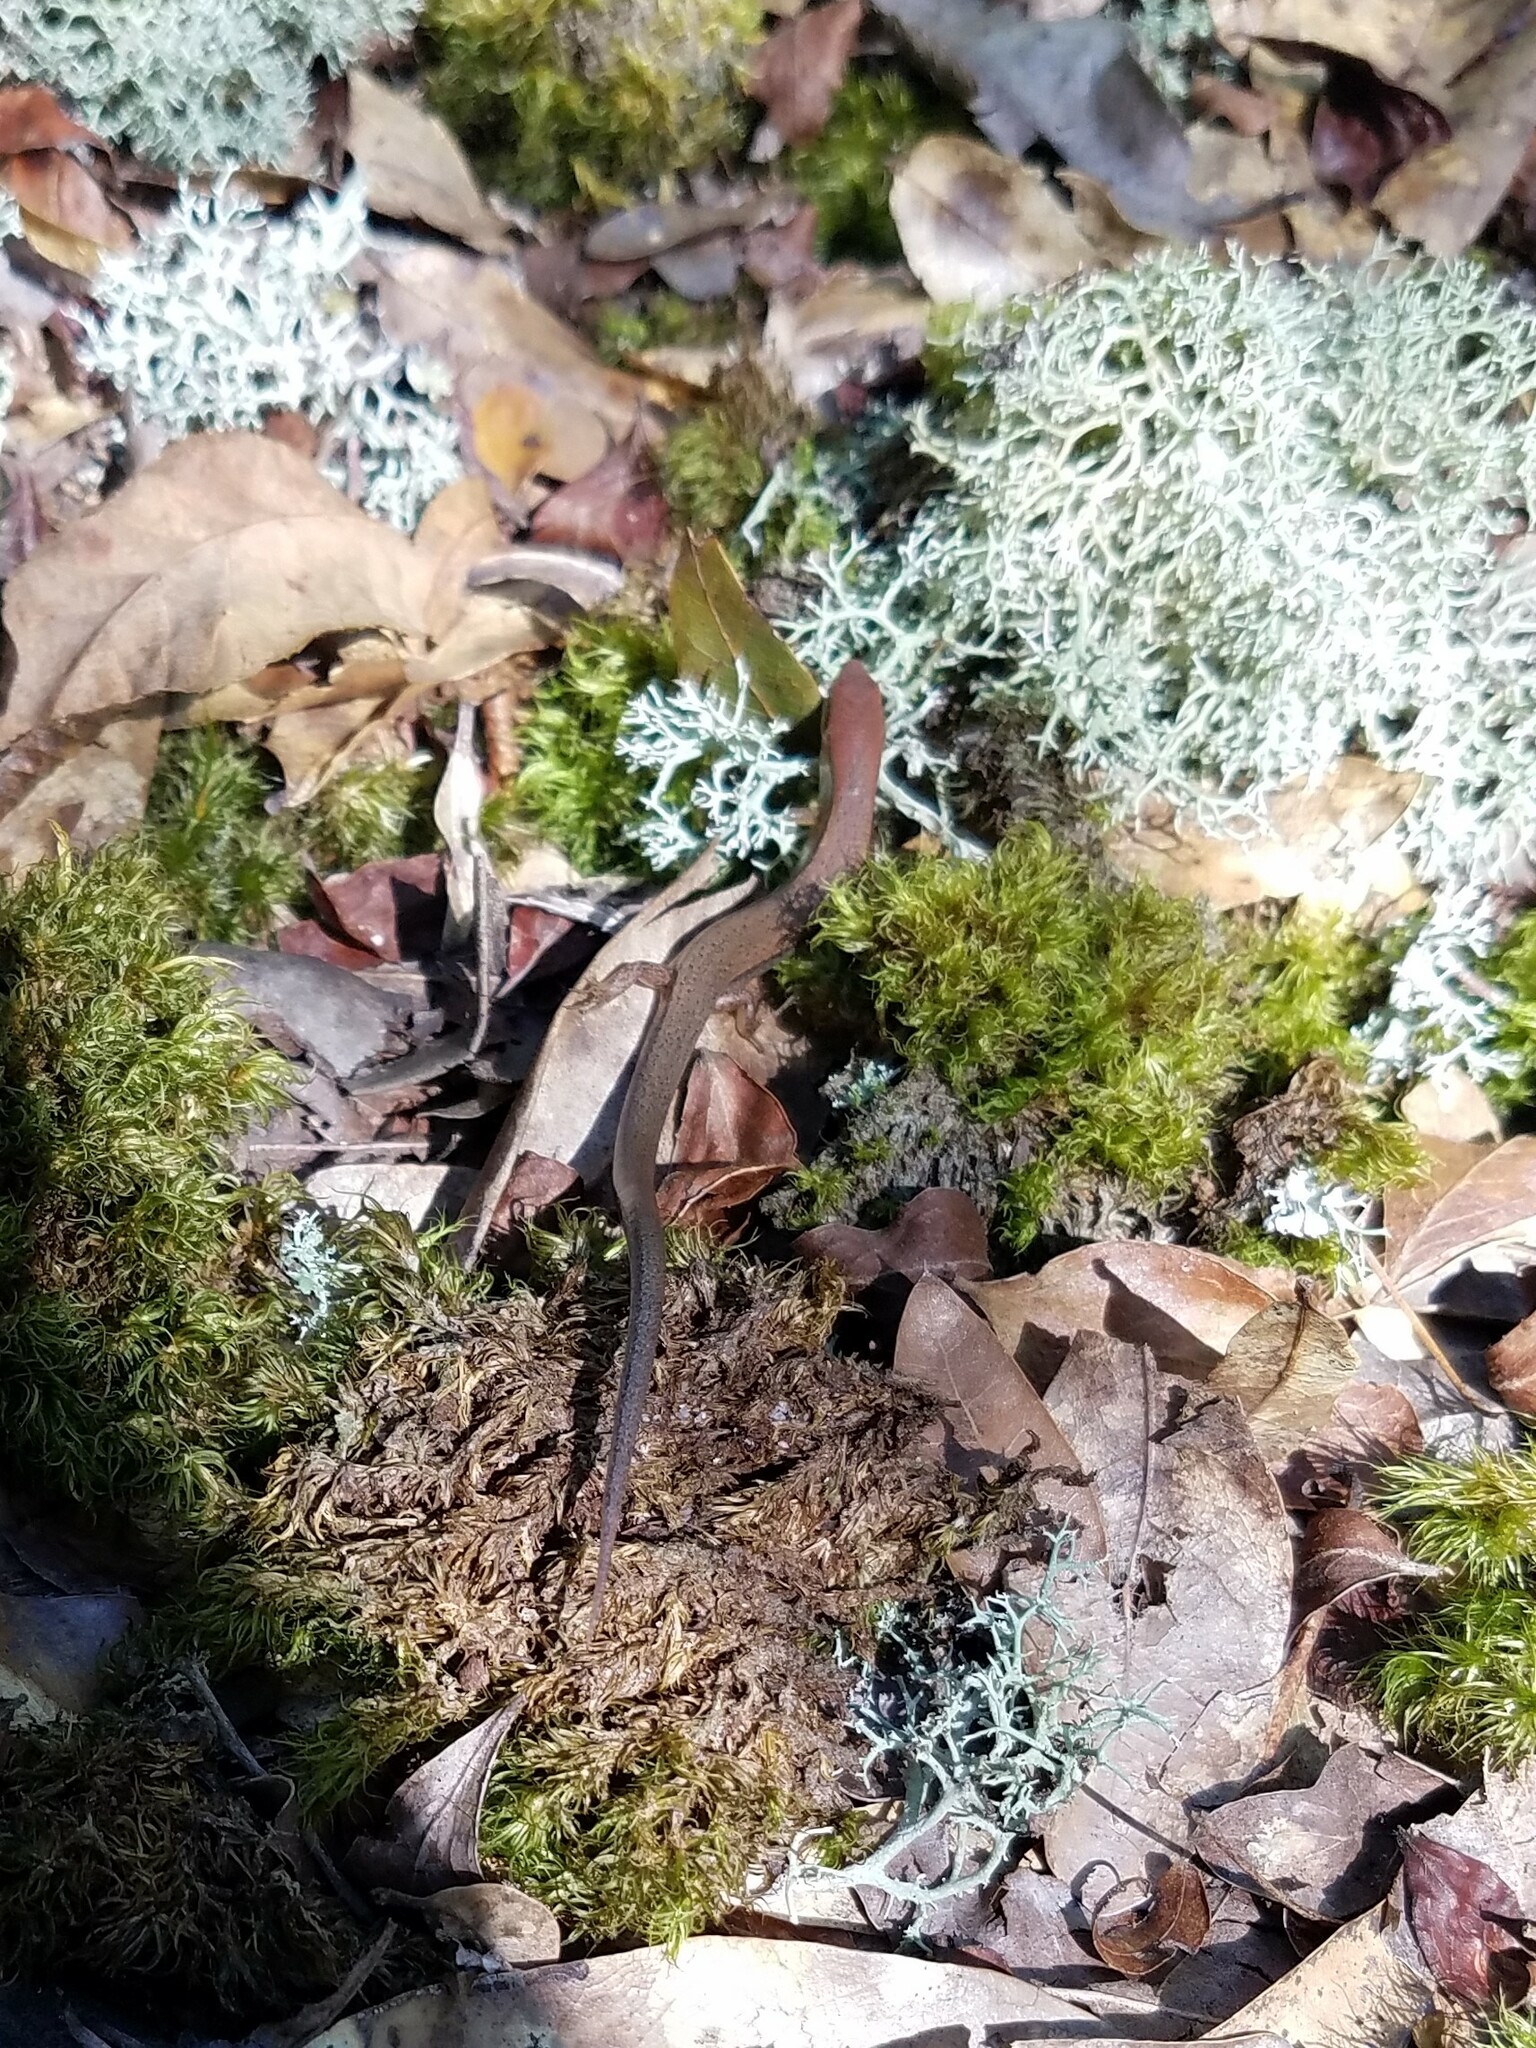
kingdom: Animalia
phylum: Chordata
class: Squamata
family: Scincidae
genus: Scincella
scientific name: Scincella lateralis
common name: Ground skink
